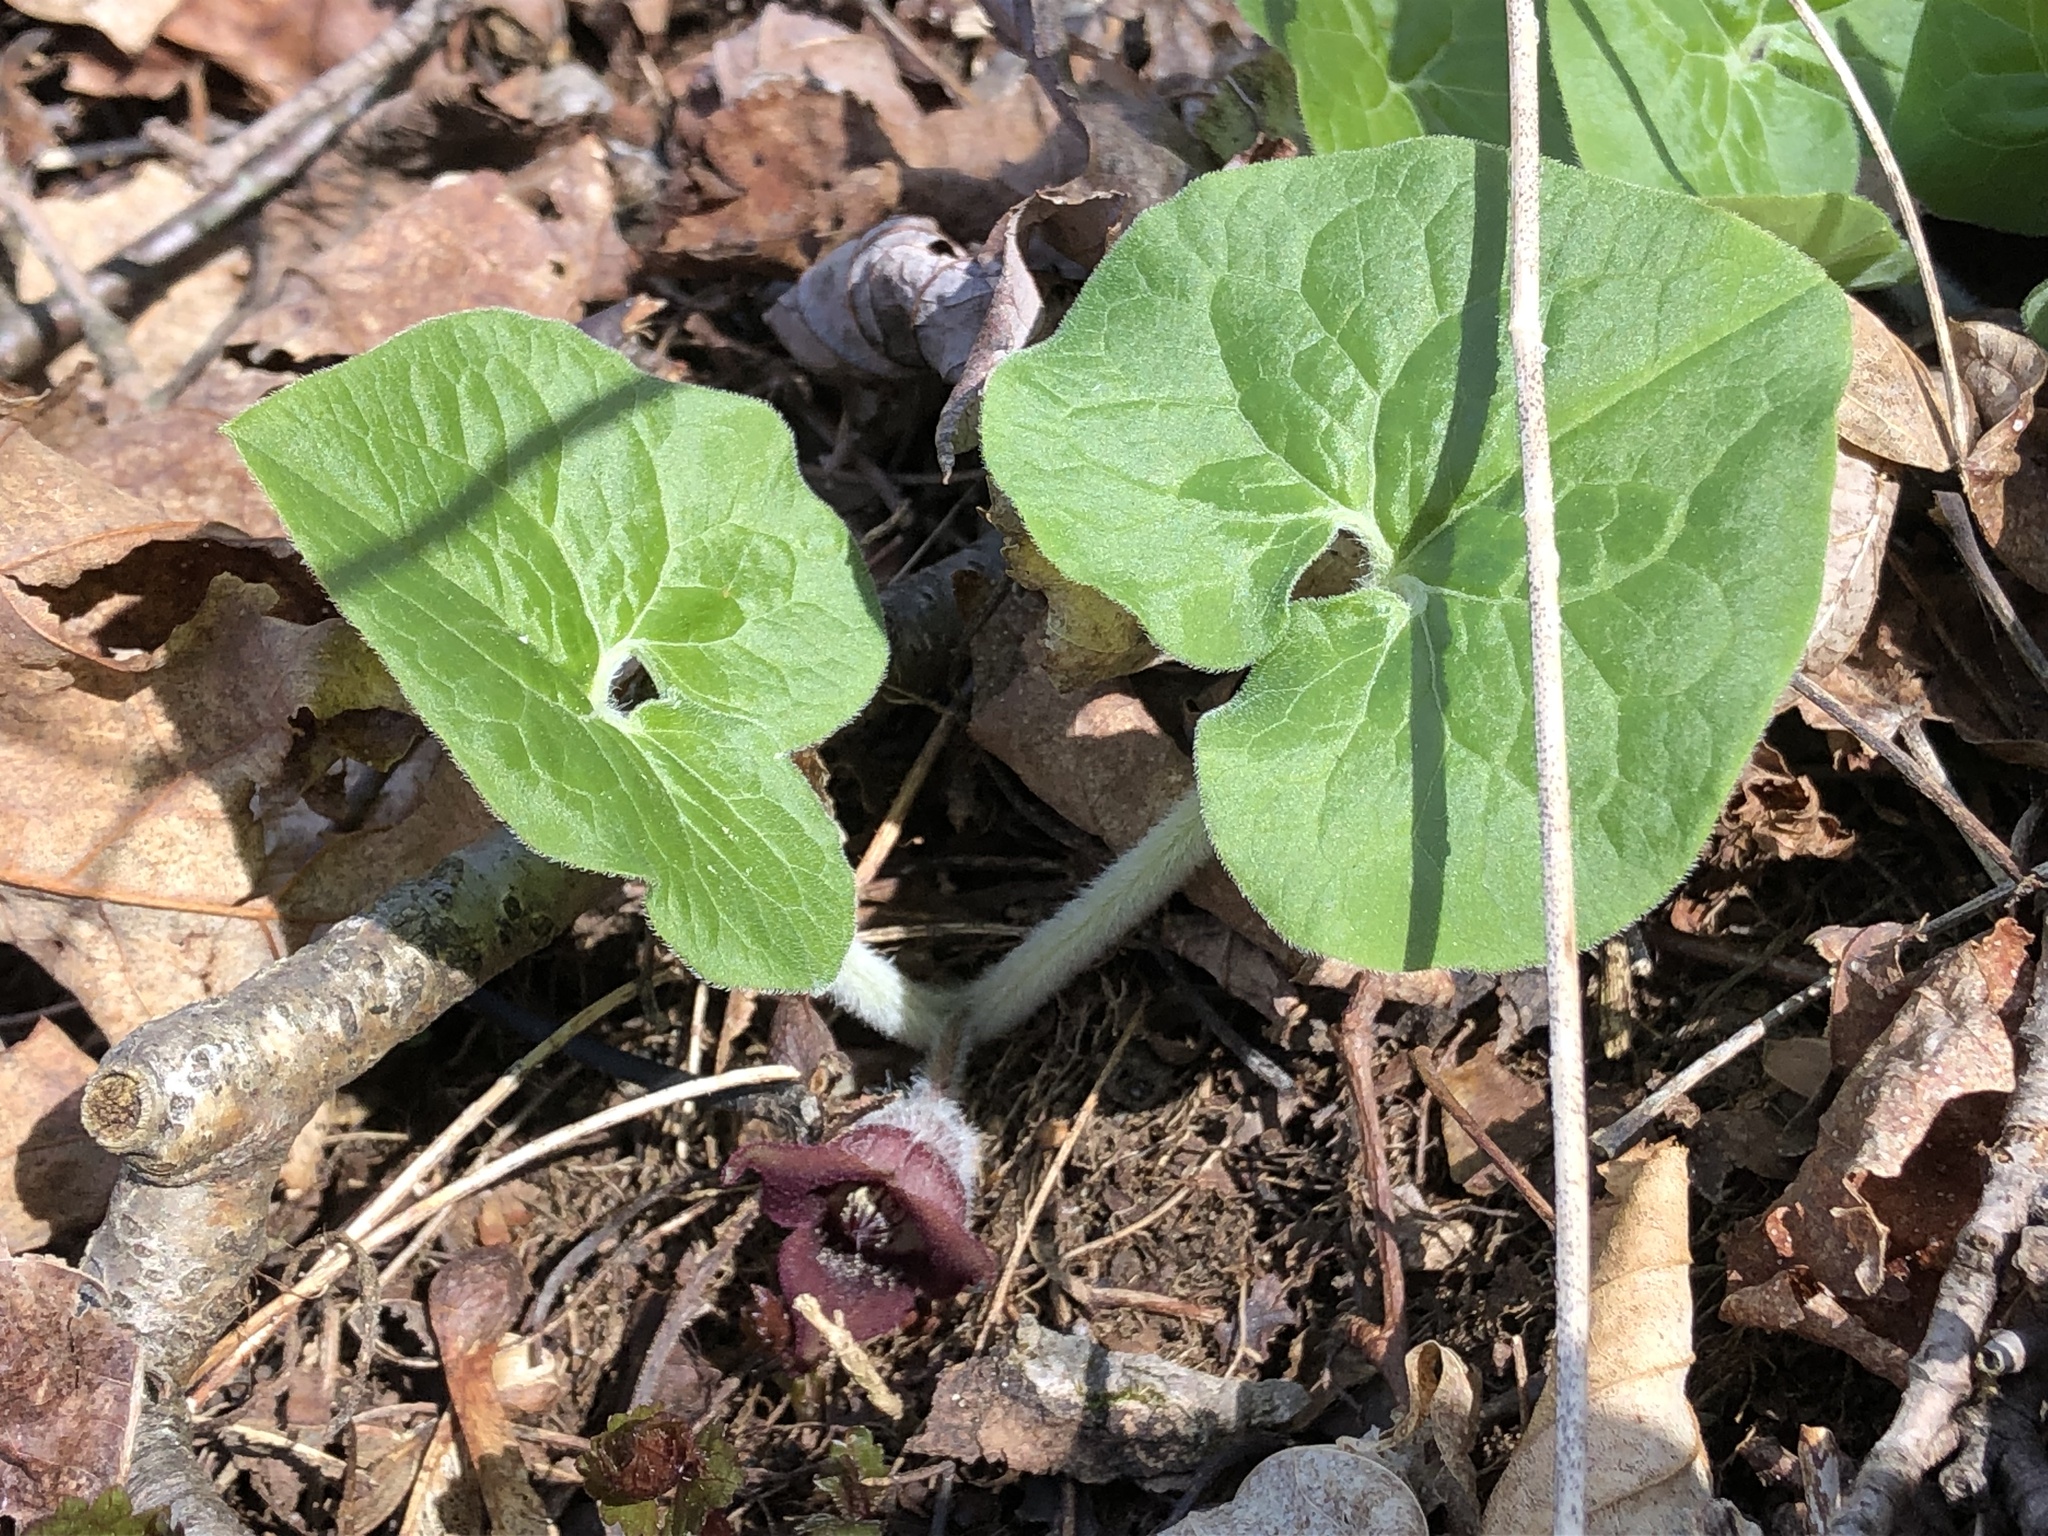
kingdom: Plantae
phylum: Tracheophyta
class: Magnoliopsida
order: Piperales
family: Aristolochiaceae
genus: Asarum
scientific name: Asarum canadense
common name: Wild ginger
